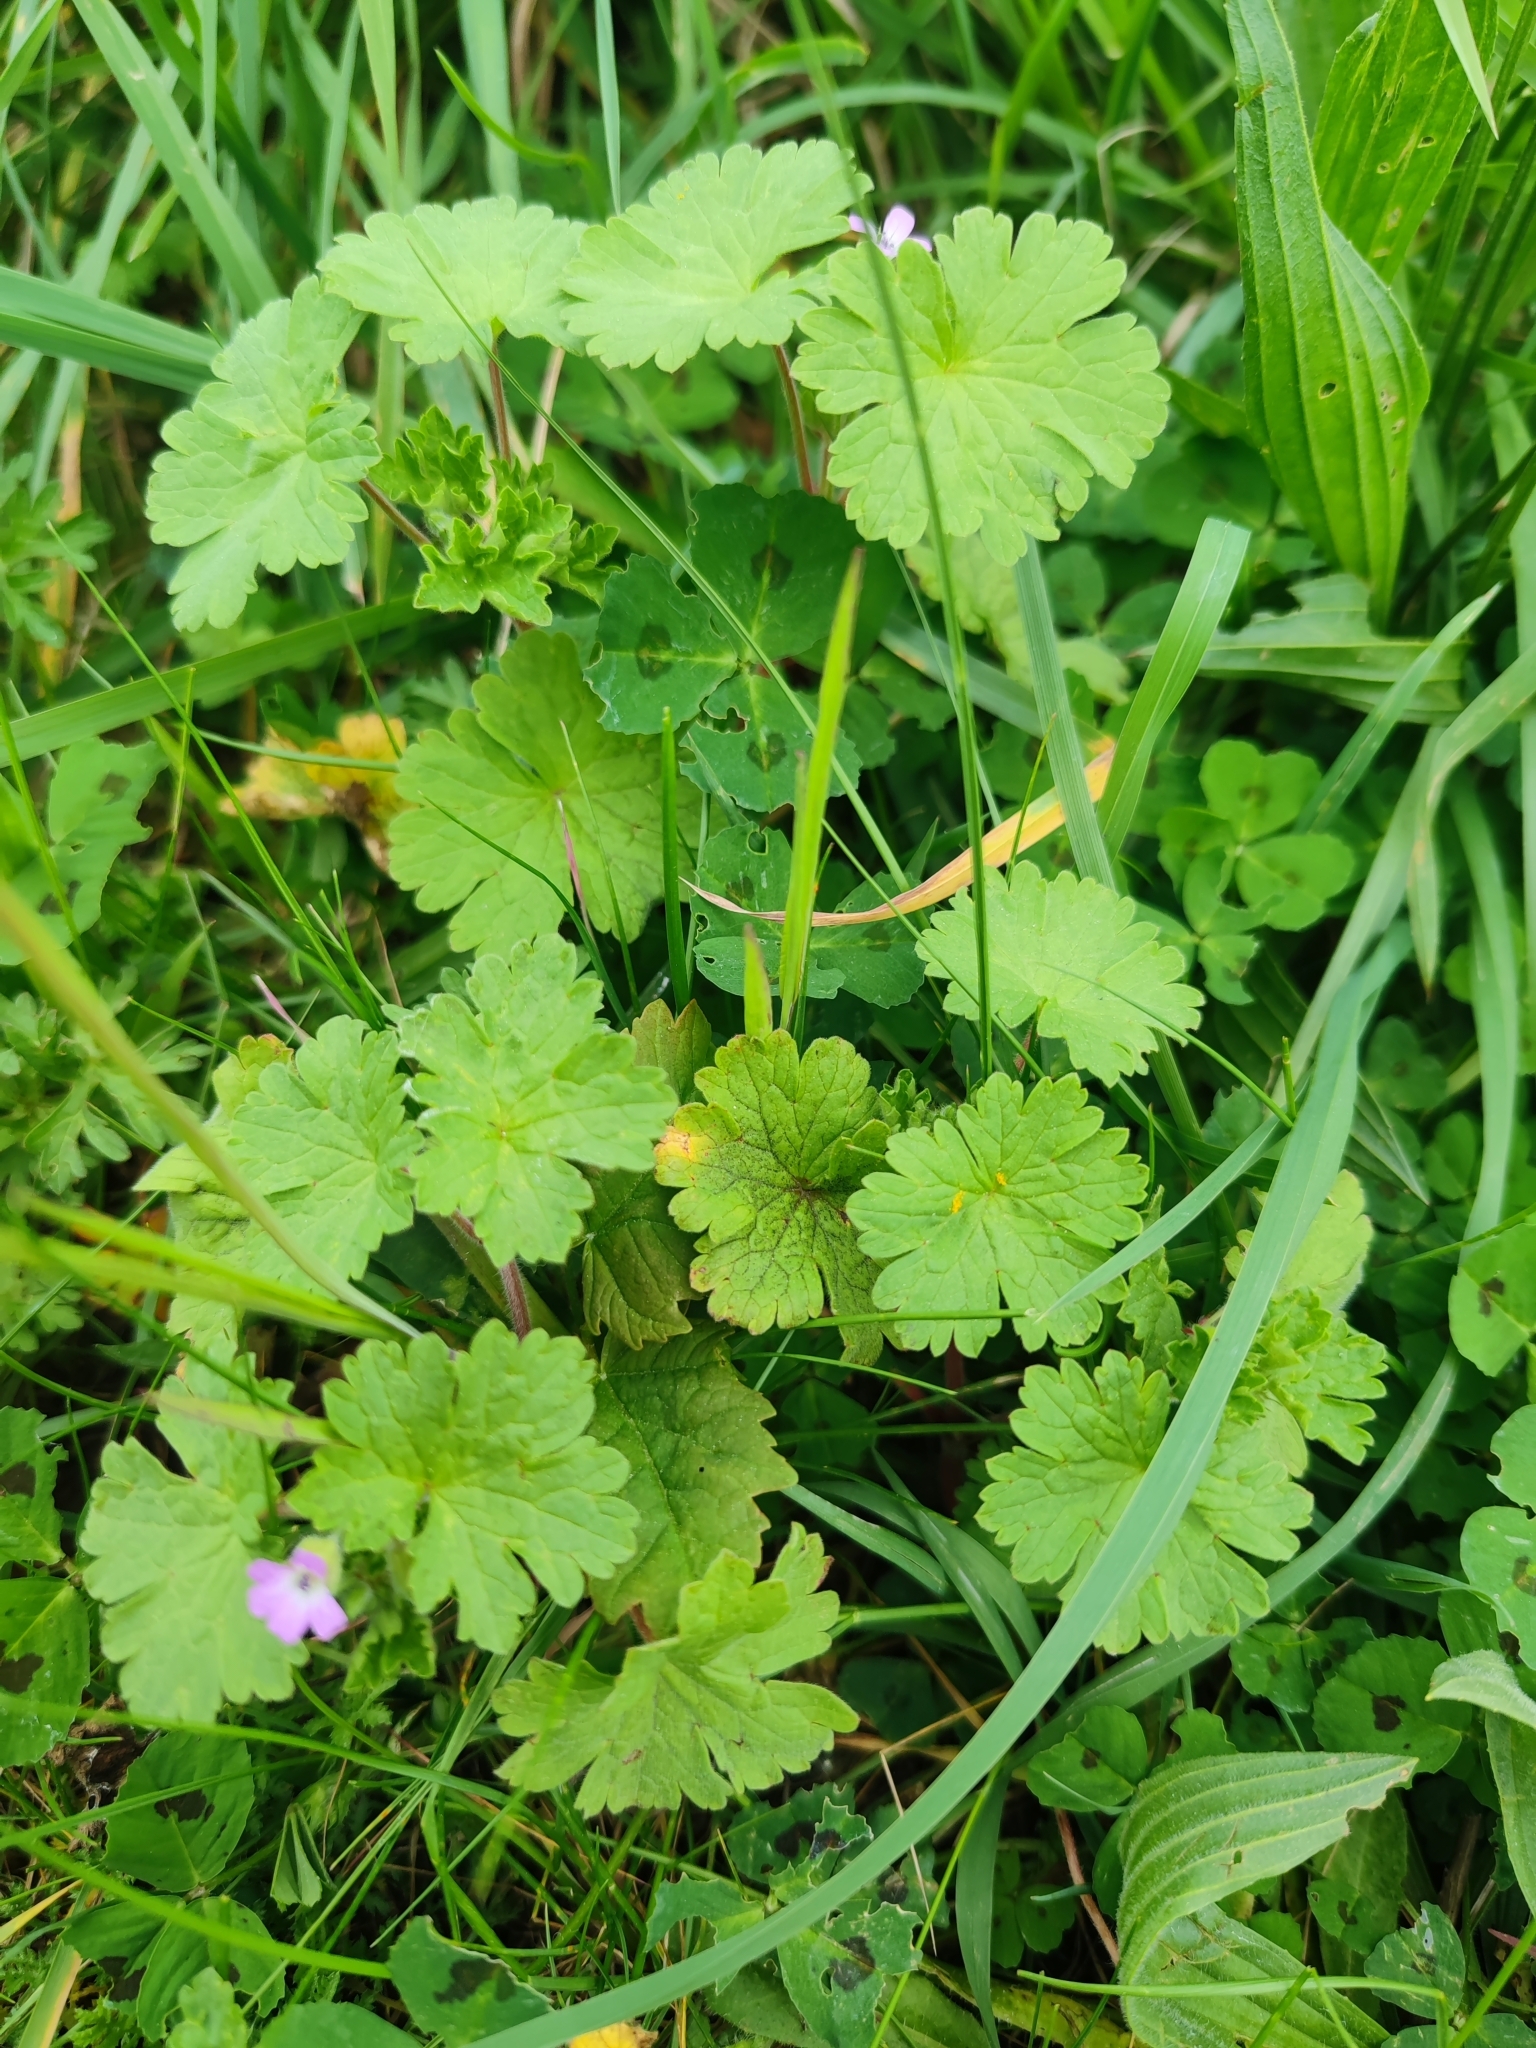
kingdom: Plantae
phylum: Tracheophyta
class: Magnoliopsida
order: Geraniales
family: Geraniaceae
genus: Geranium
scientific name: Geranium rotundifolium
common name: Round-leaved crane's-bill
